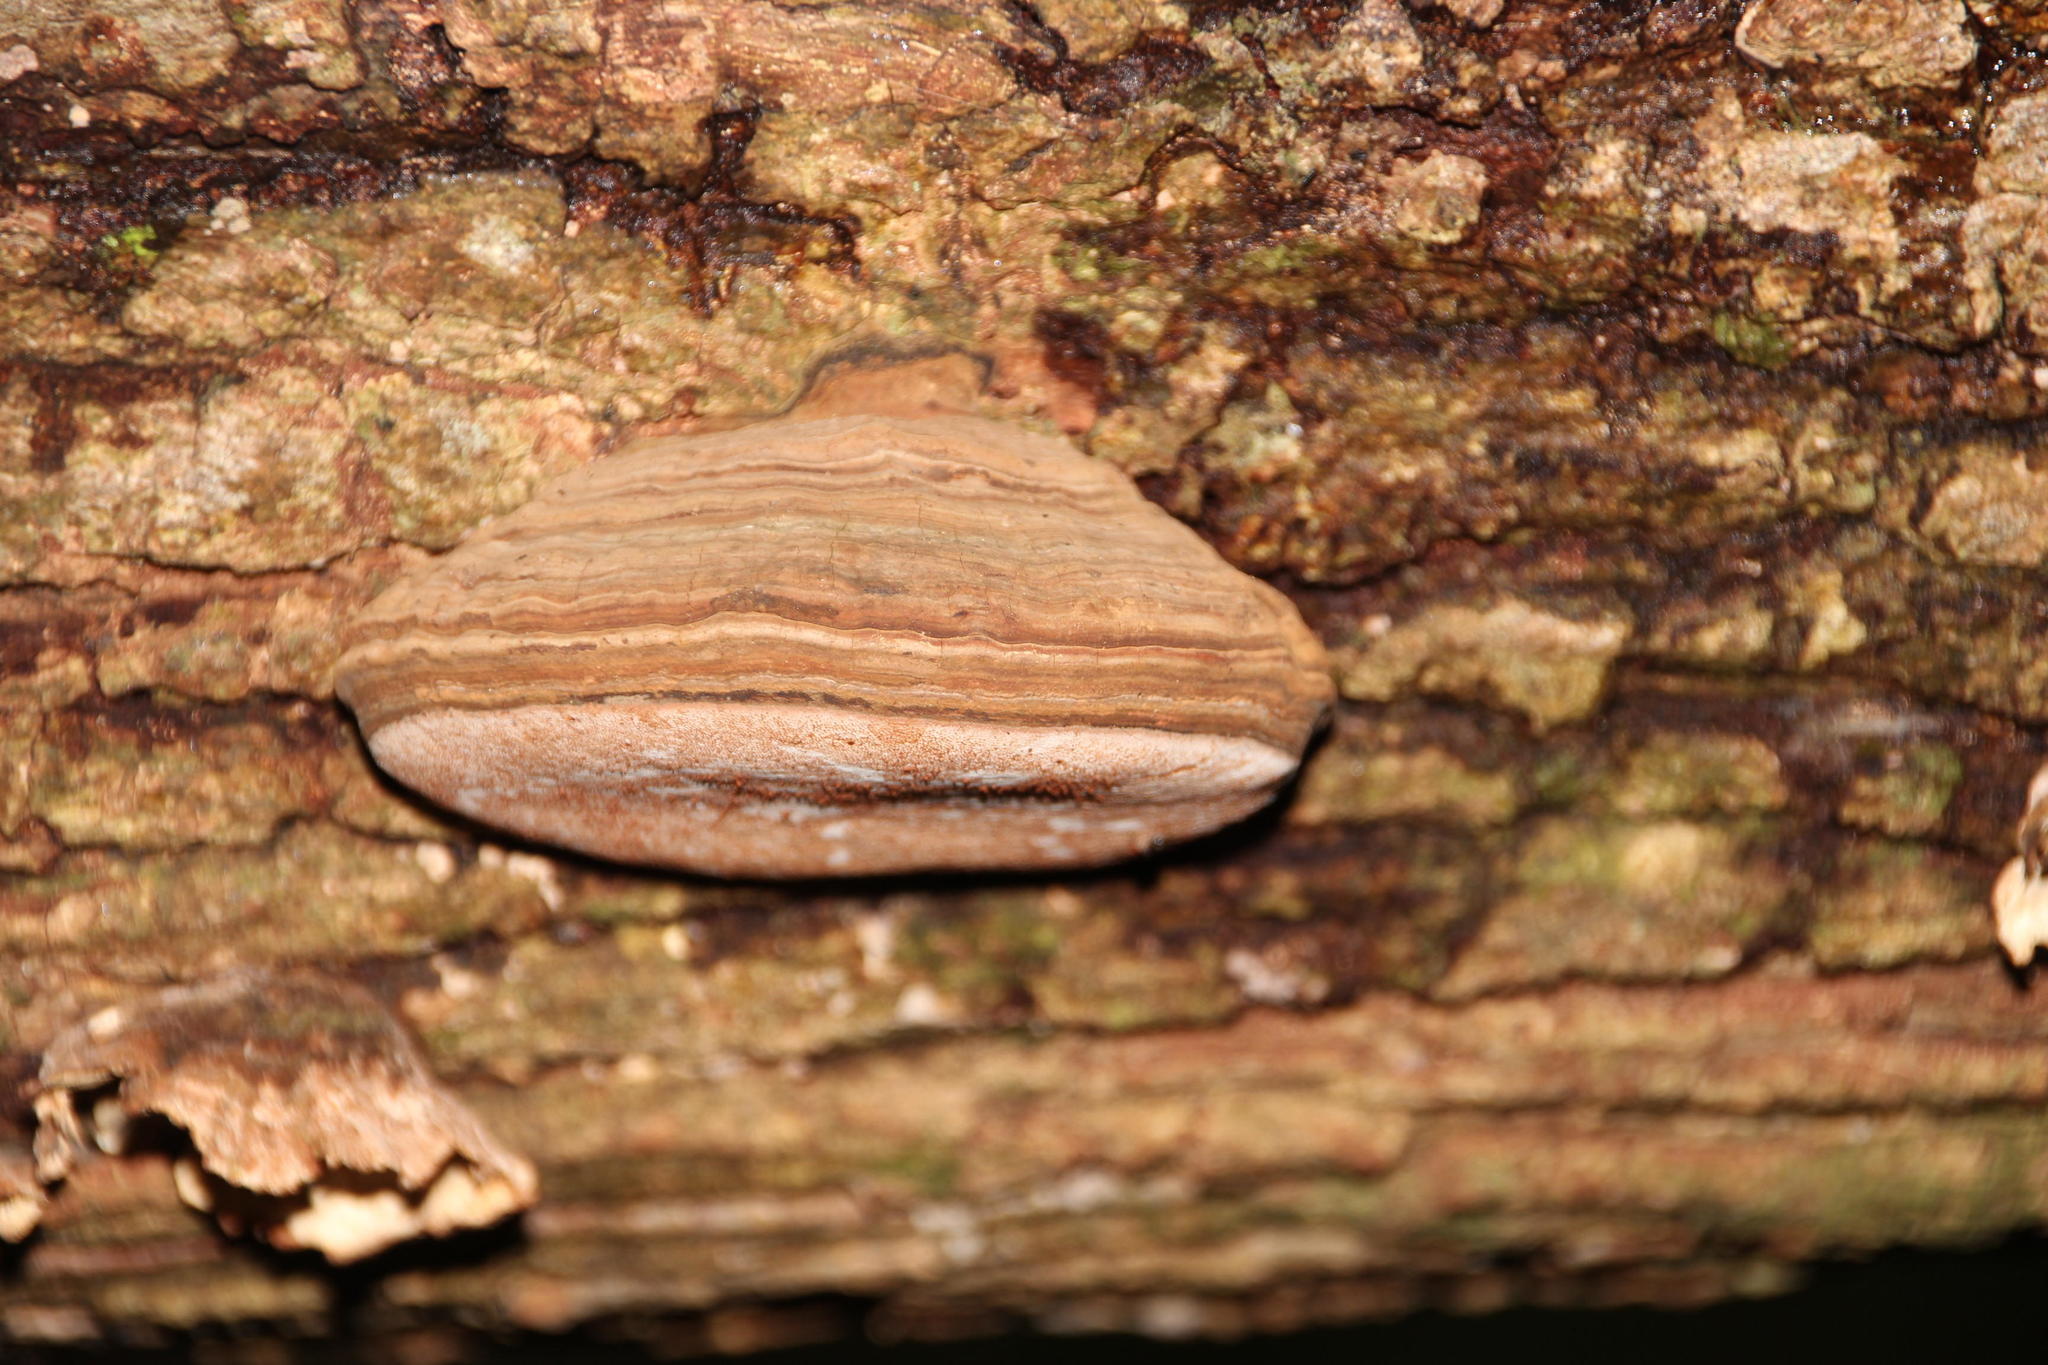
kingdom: Fungi
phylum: Basidiomycota
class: Agaricomycetes
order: Polyporales
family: Polyporaceae
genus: Fomes
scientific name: Fomes fomentarius
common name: Hoof fungus
